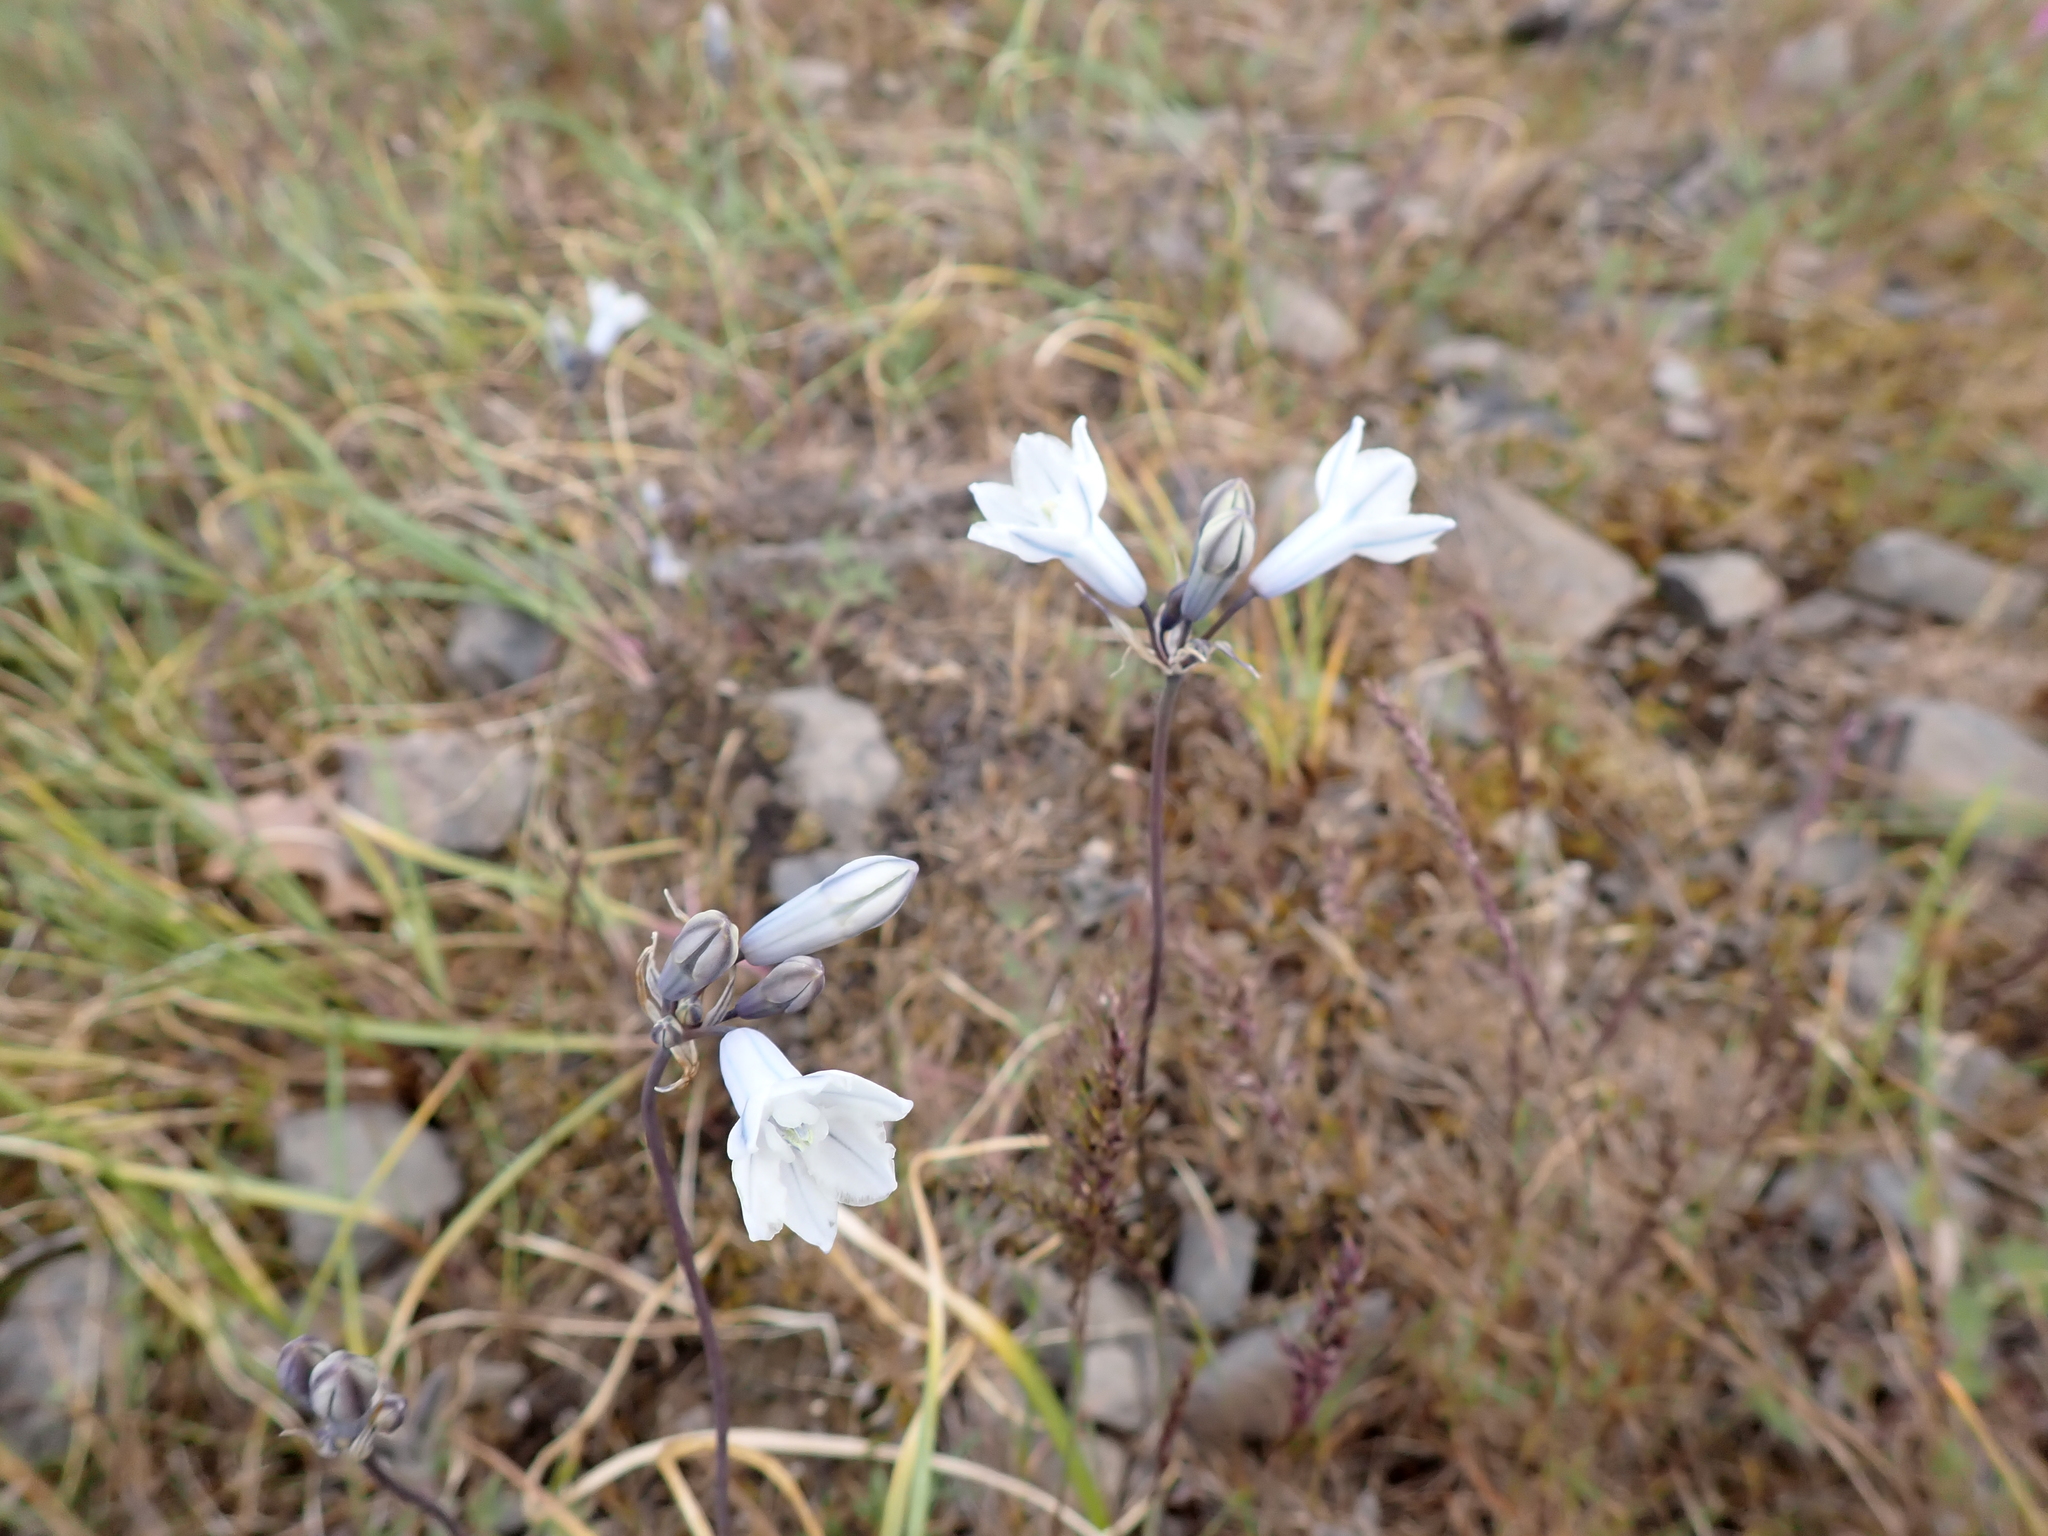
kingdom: Plantae
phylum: Tracheophyta
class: Liliopsida
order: Asparagales
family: Asparagaceae
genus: Triteleia
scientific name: Triteleia grandiflora
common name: Wild hyacinth
